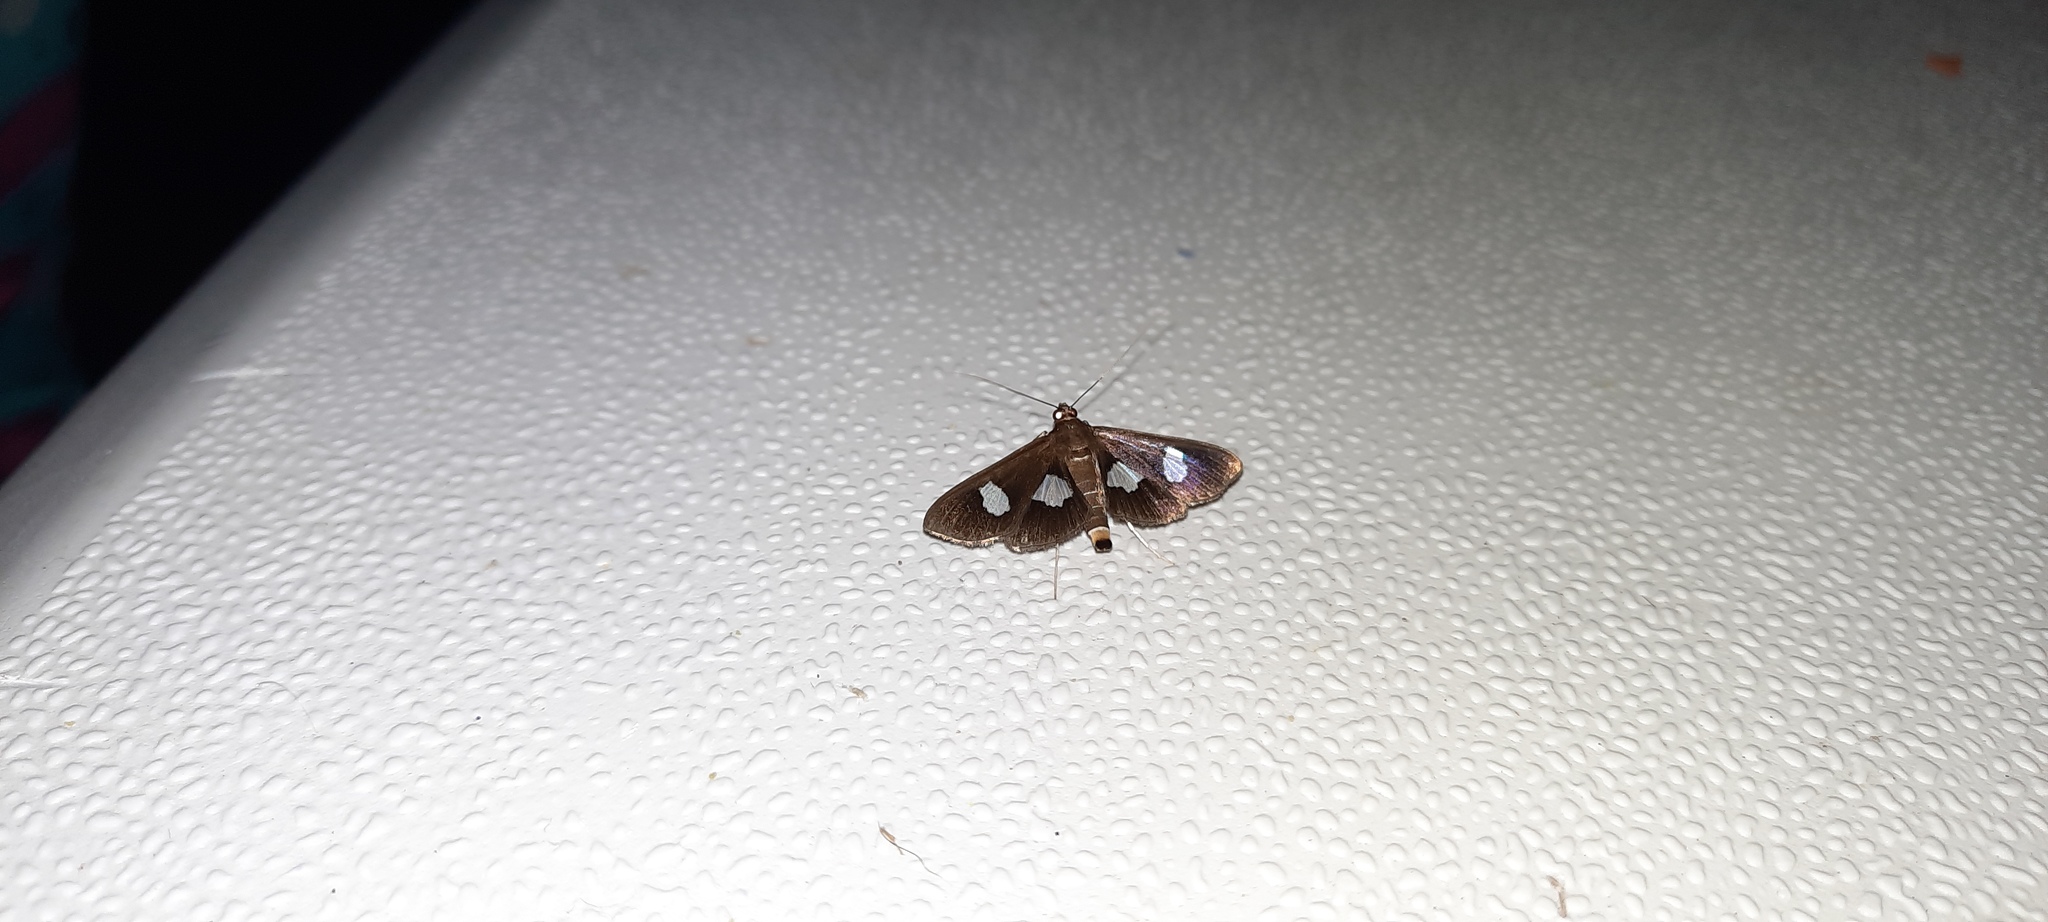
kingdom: Animalia
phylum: Arthropoda
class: Insecta
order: Lepidoptera
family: Crambidae
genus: Diaphania
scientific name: Diaphania exclusalis
